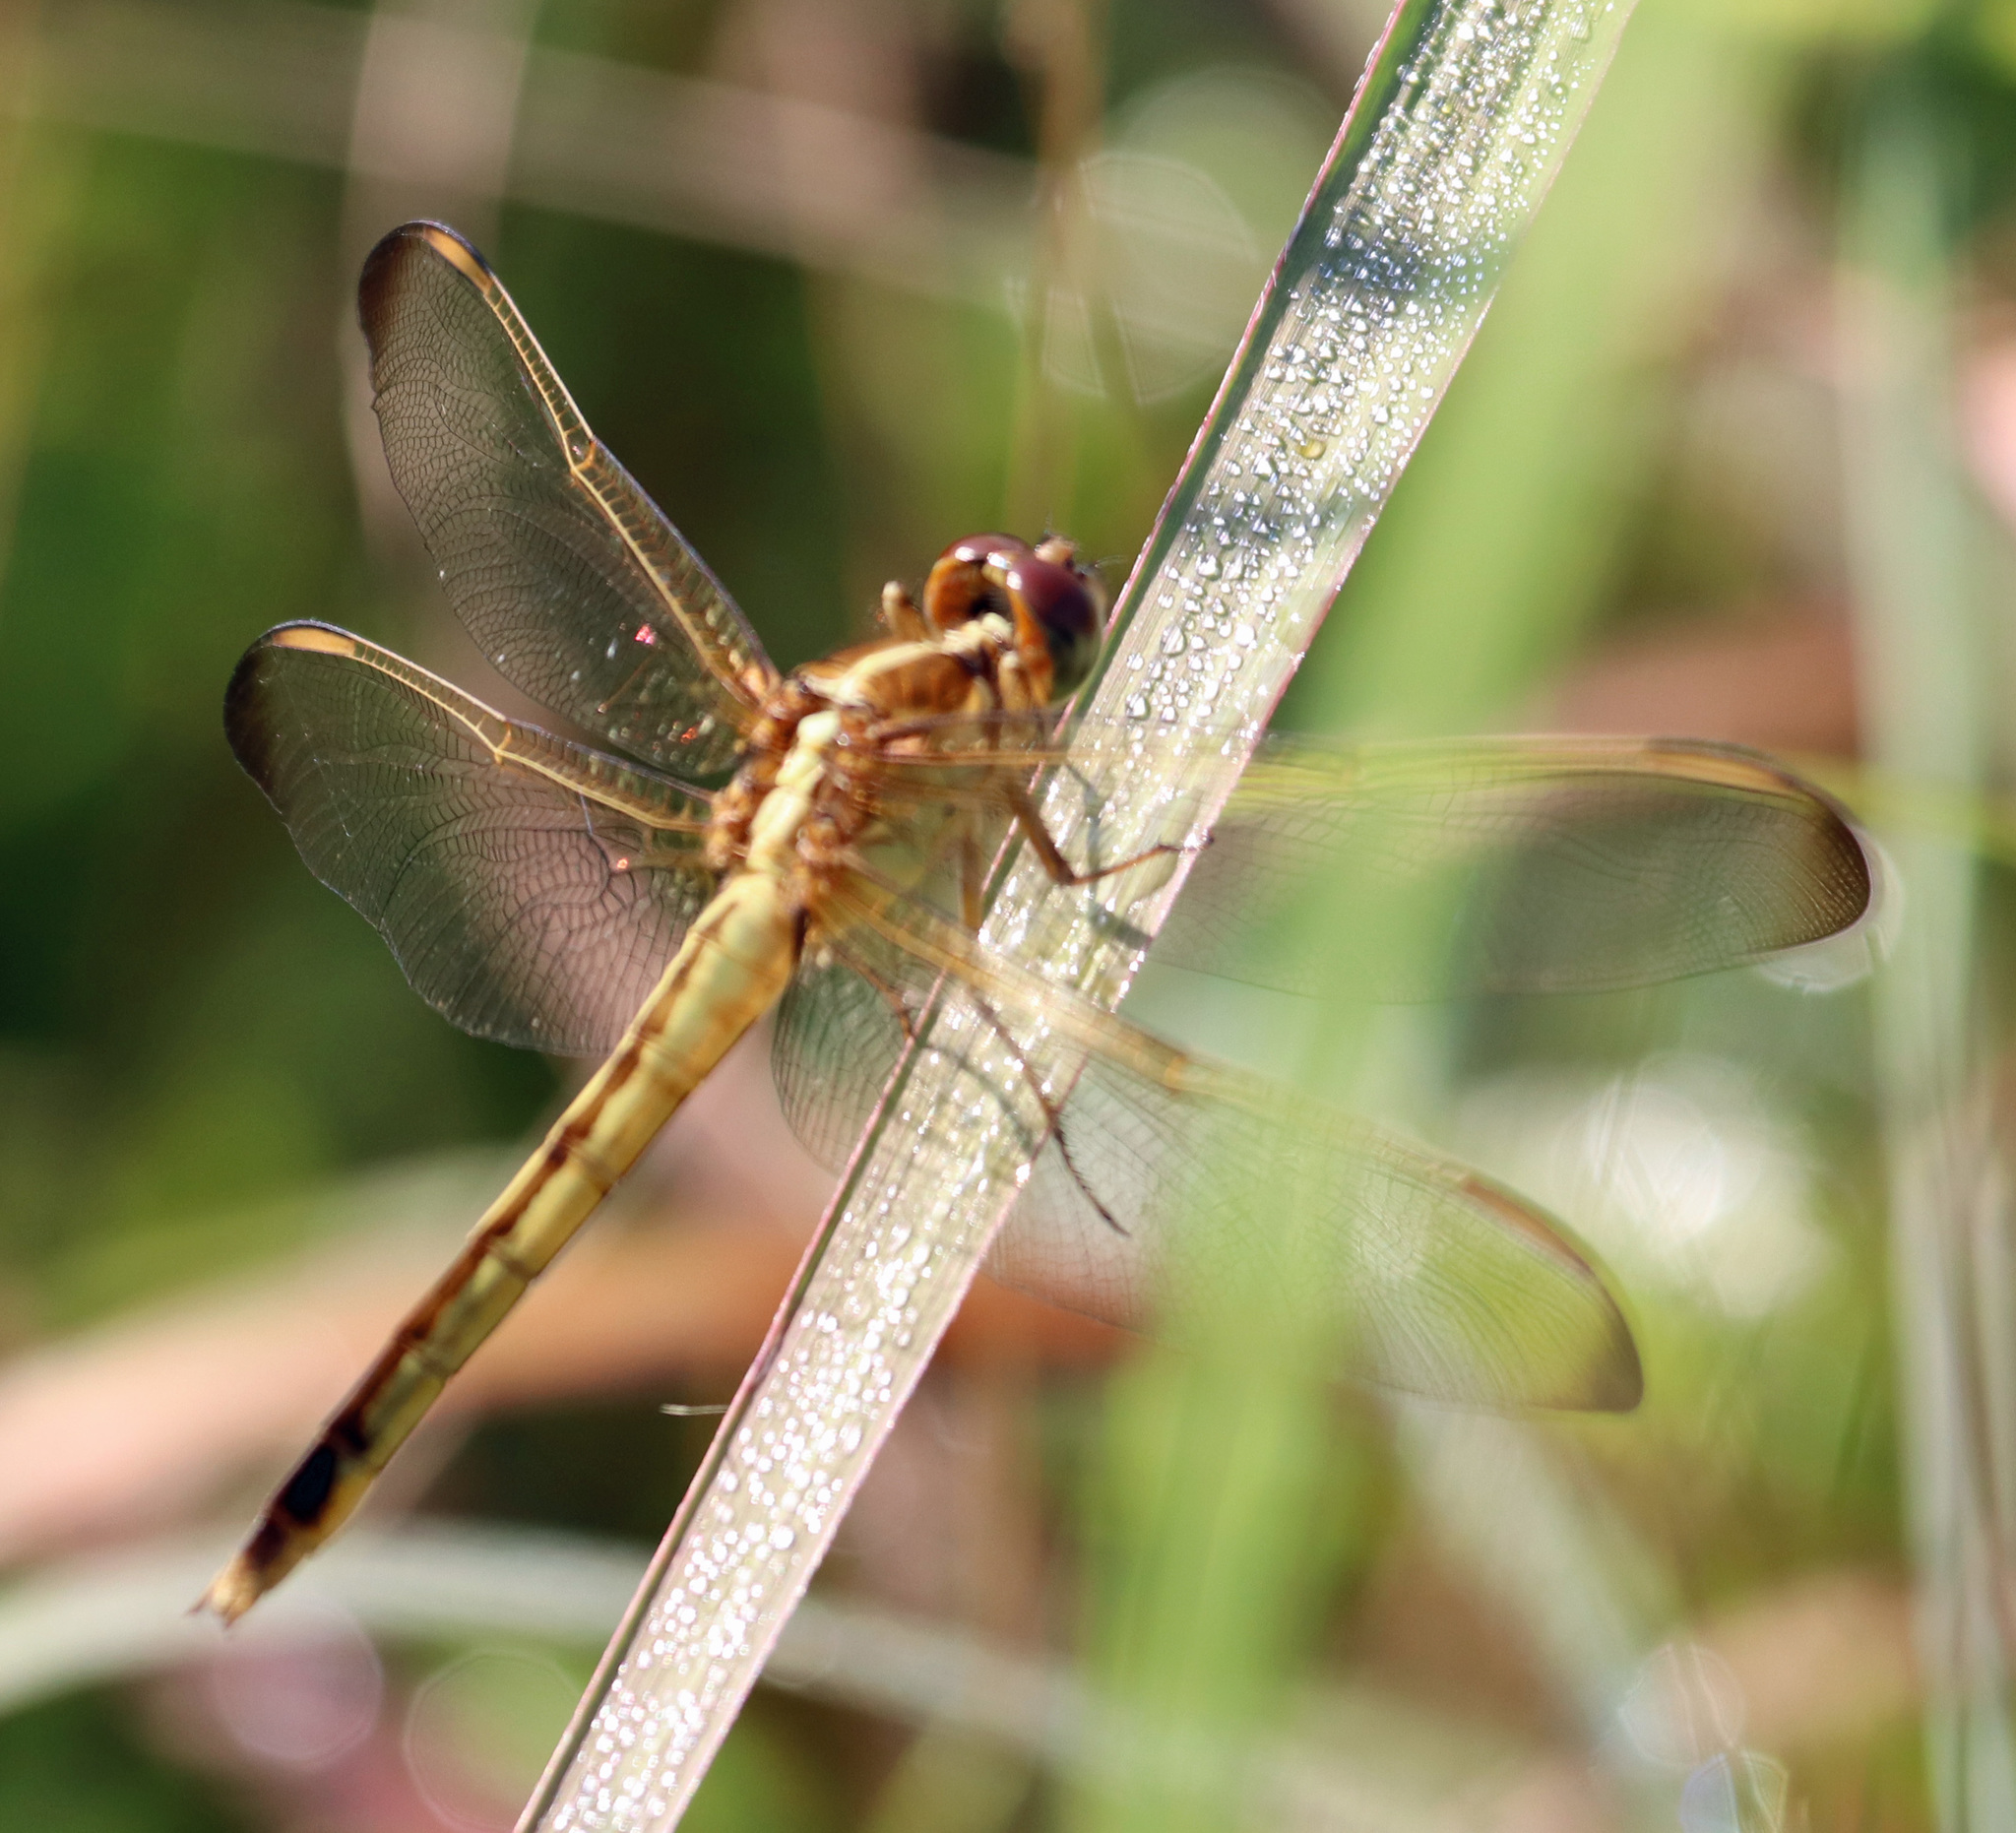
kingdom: Animalia
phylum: Arthropoda
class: Insecta
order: Odonata
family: Libellulidae
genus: Libellula
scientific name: Libellula needhami
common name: Needham's skimmer
